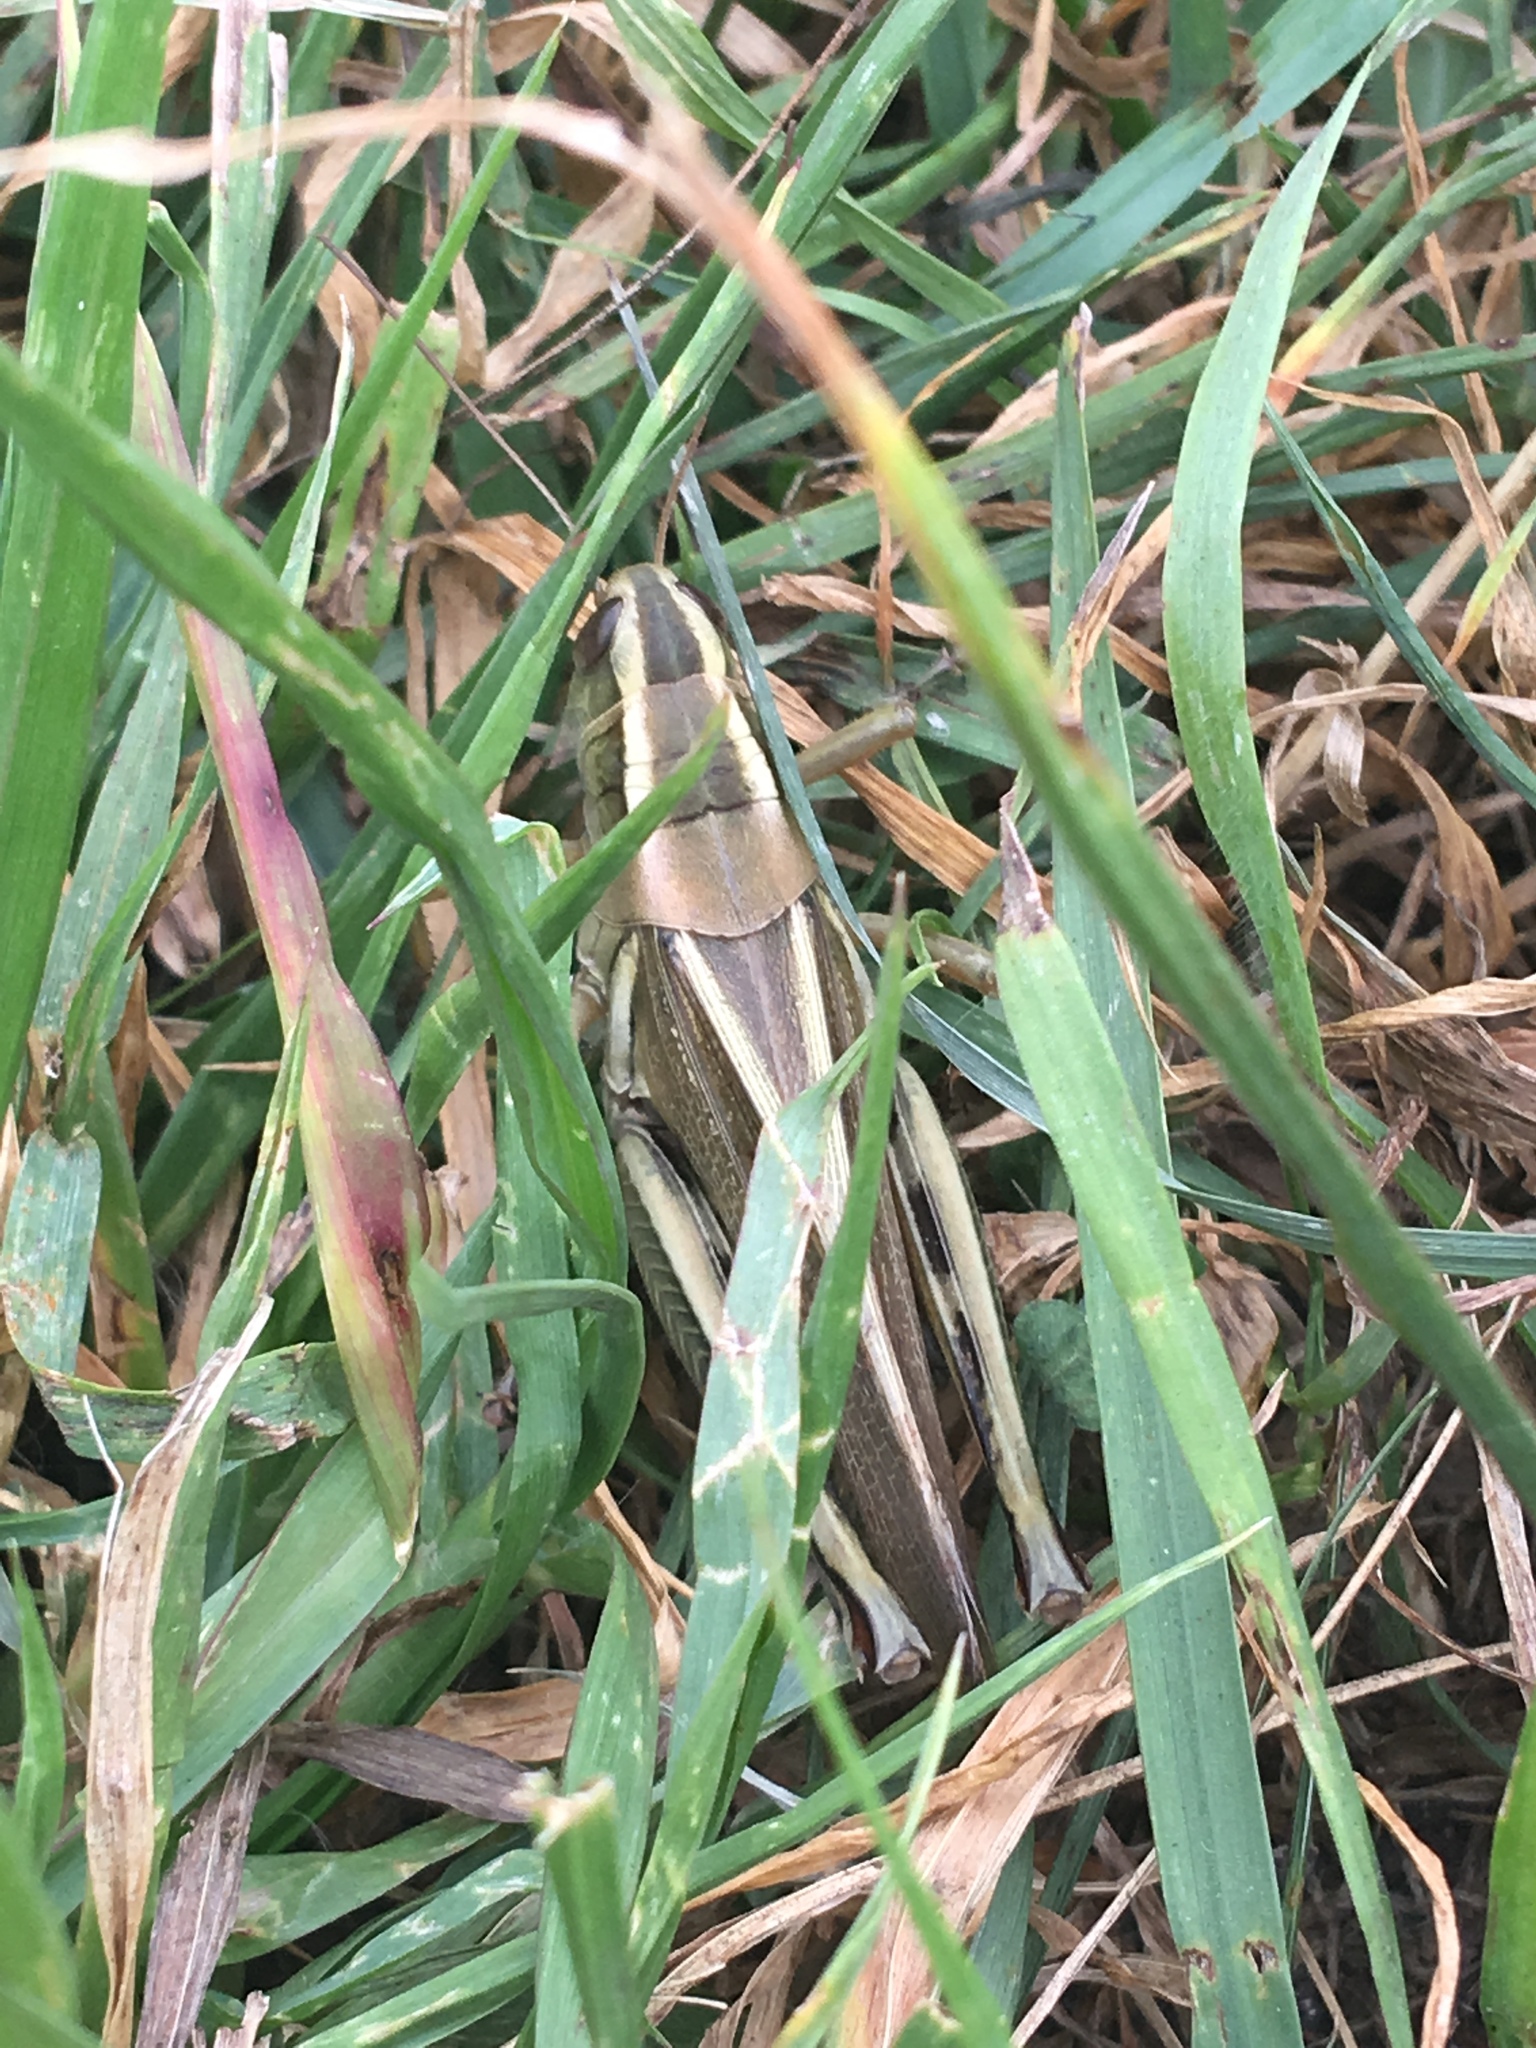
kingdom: Animalia
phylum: Arthropoda
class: Insecta
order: Orthoptera
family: Acrididae
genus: Melanoplus
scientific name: Melanoplus bivittatus
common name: Two-striped grasshopper
